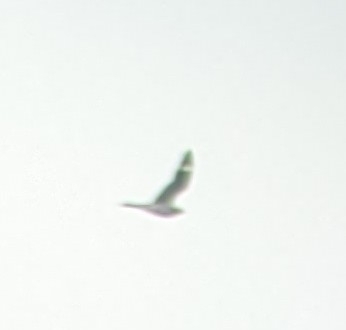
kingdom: Animalia
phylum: Chordata
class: Aves
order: Caprimulgiformes
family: Caprimulgidae
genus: Chordeiles
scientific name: Chordeiles minor
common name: Common nighthawk
